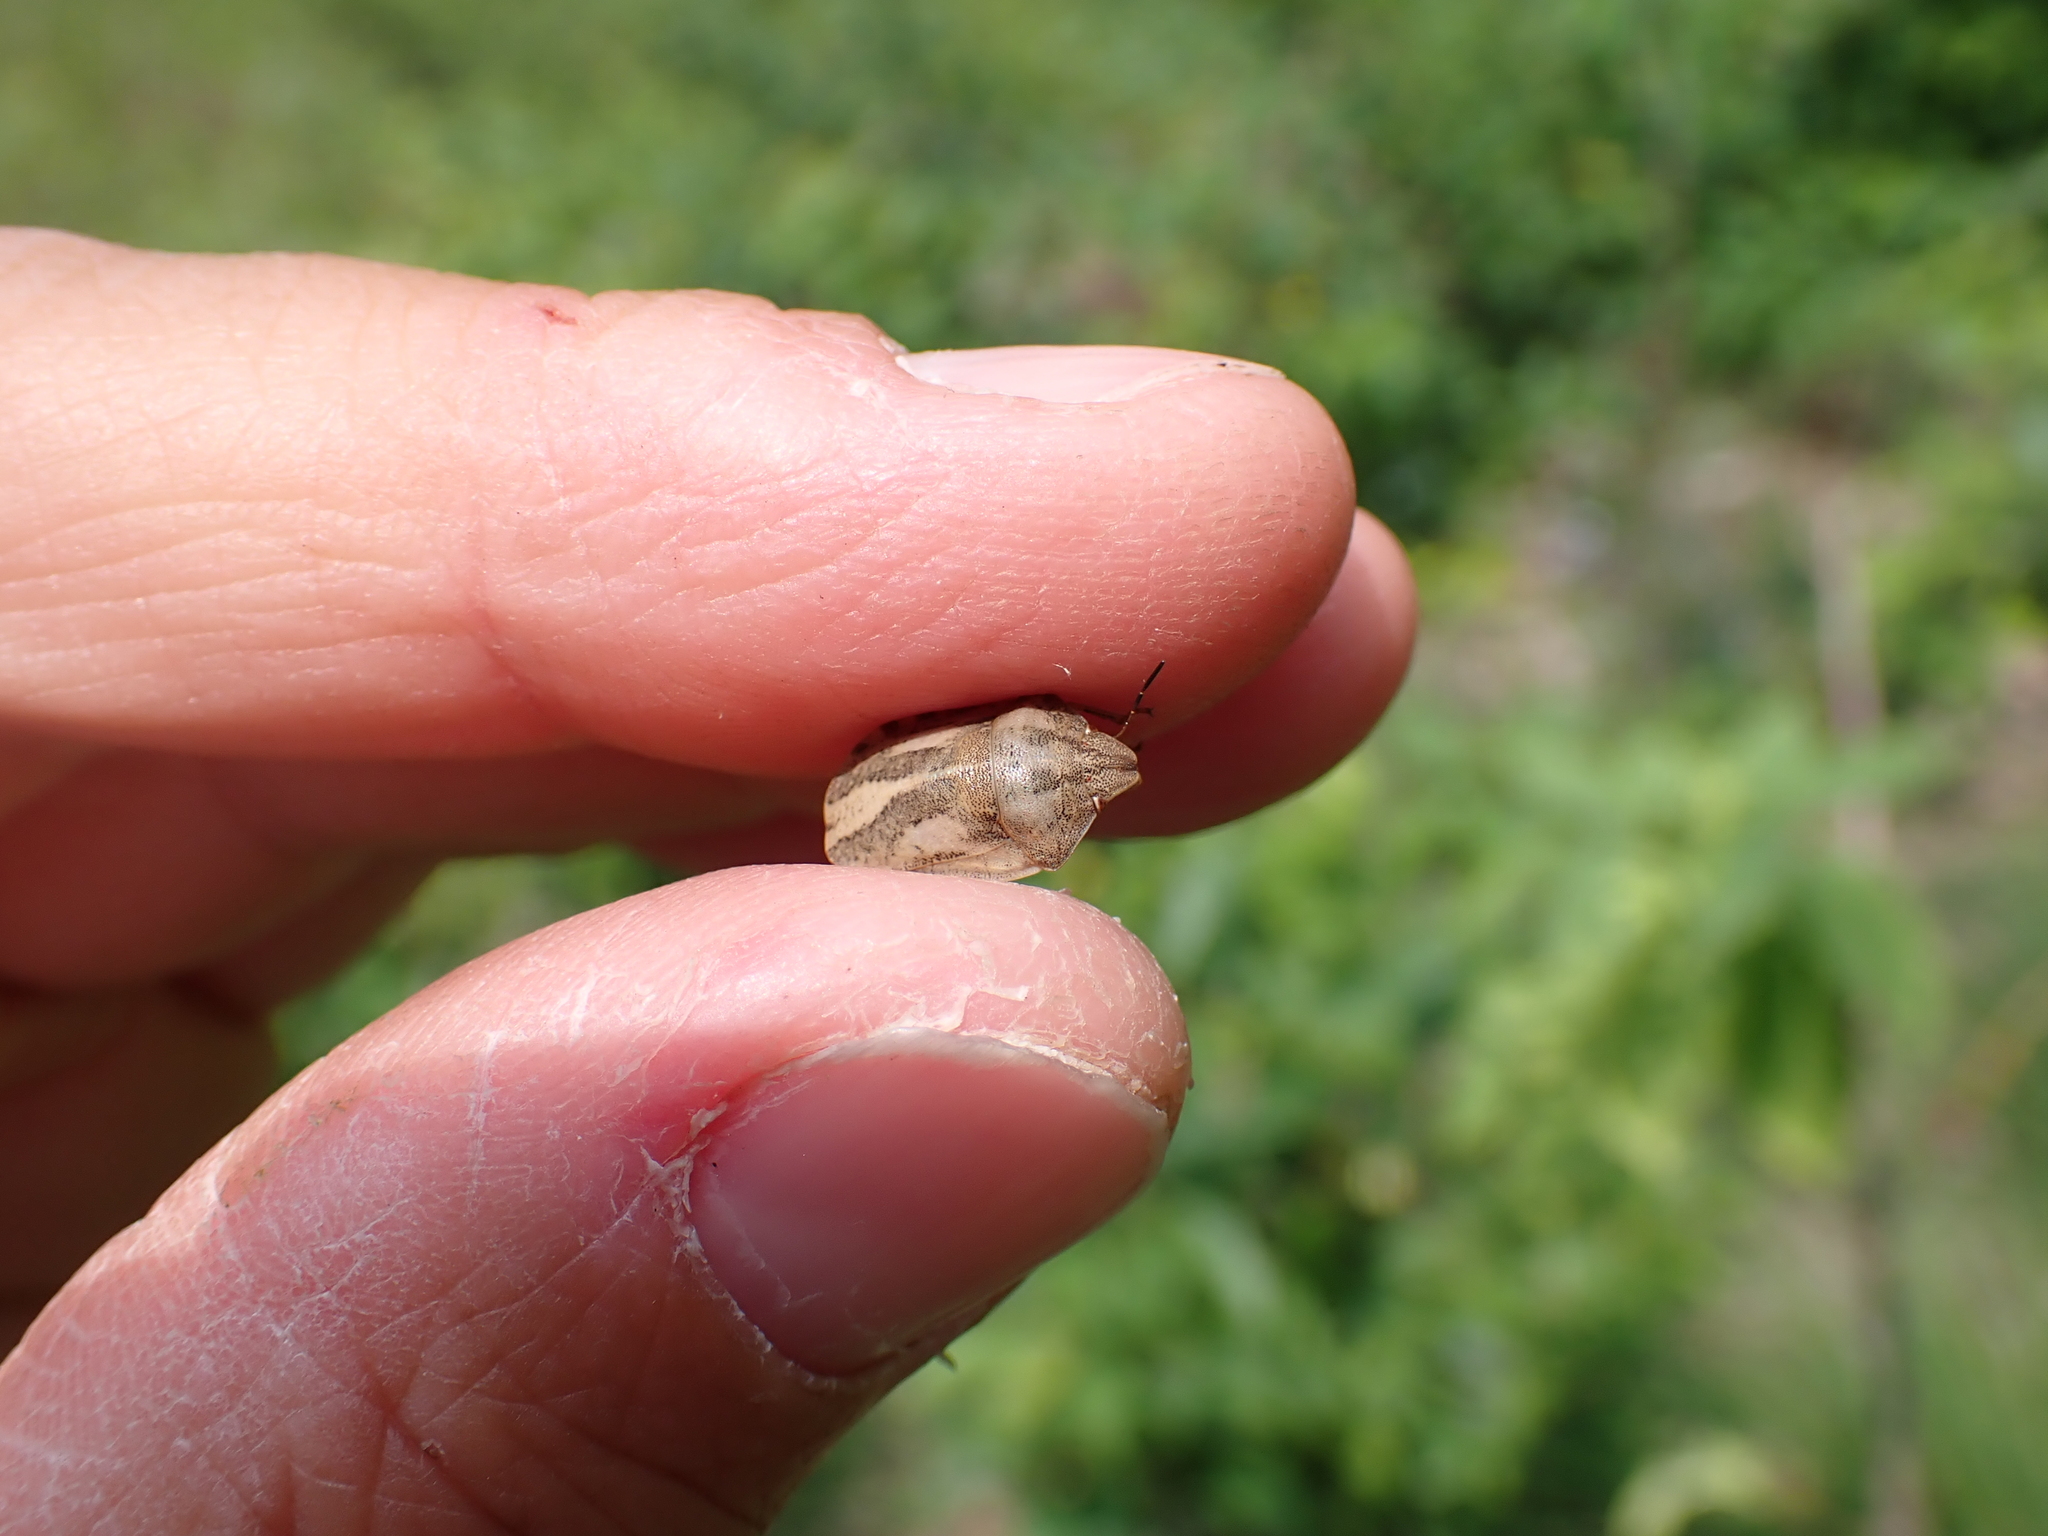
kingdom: Animalia
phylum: Arthropoda
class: Insecta
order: Hemiptera
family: Scutelleridae
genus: Eurygaster
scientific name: Eurygaster testudinaria
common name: Tortoise bug
